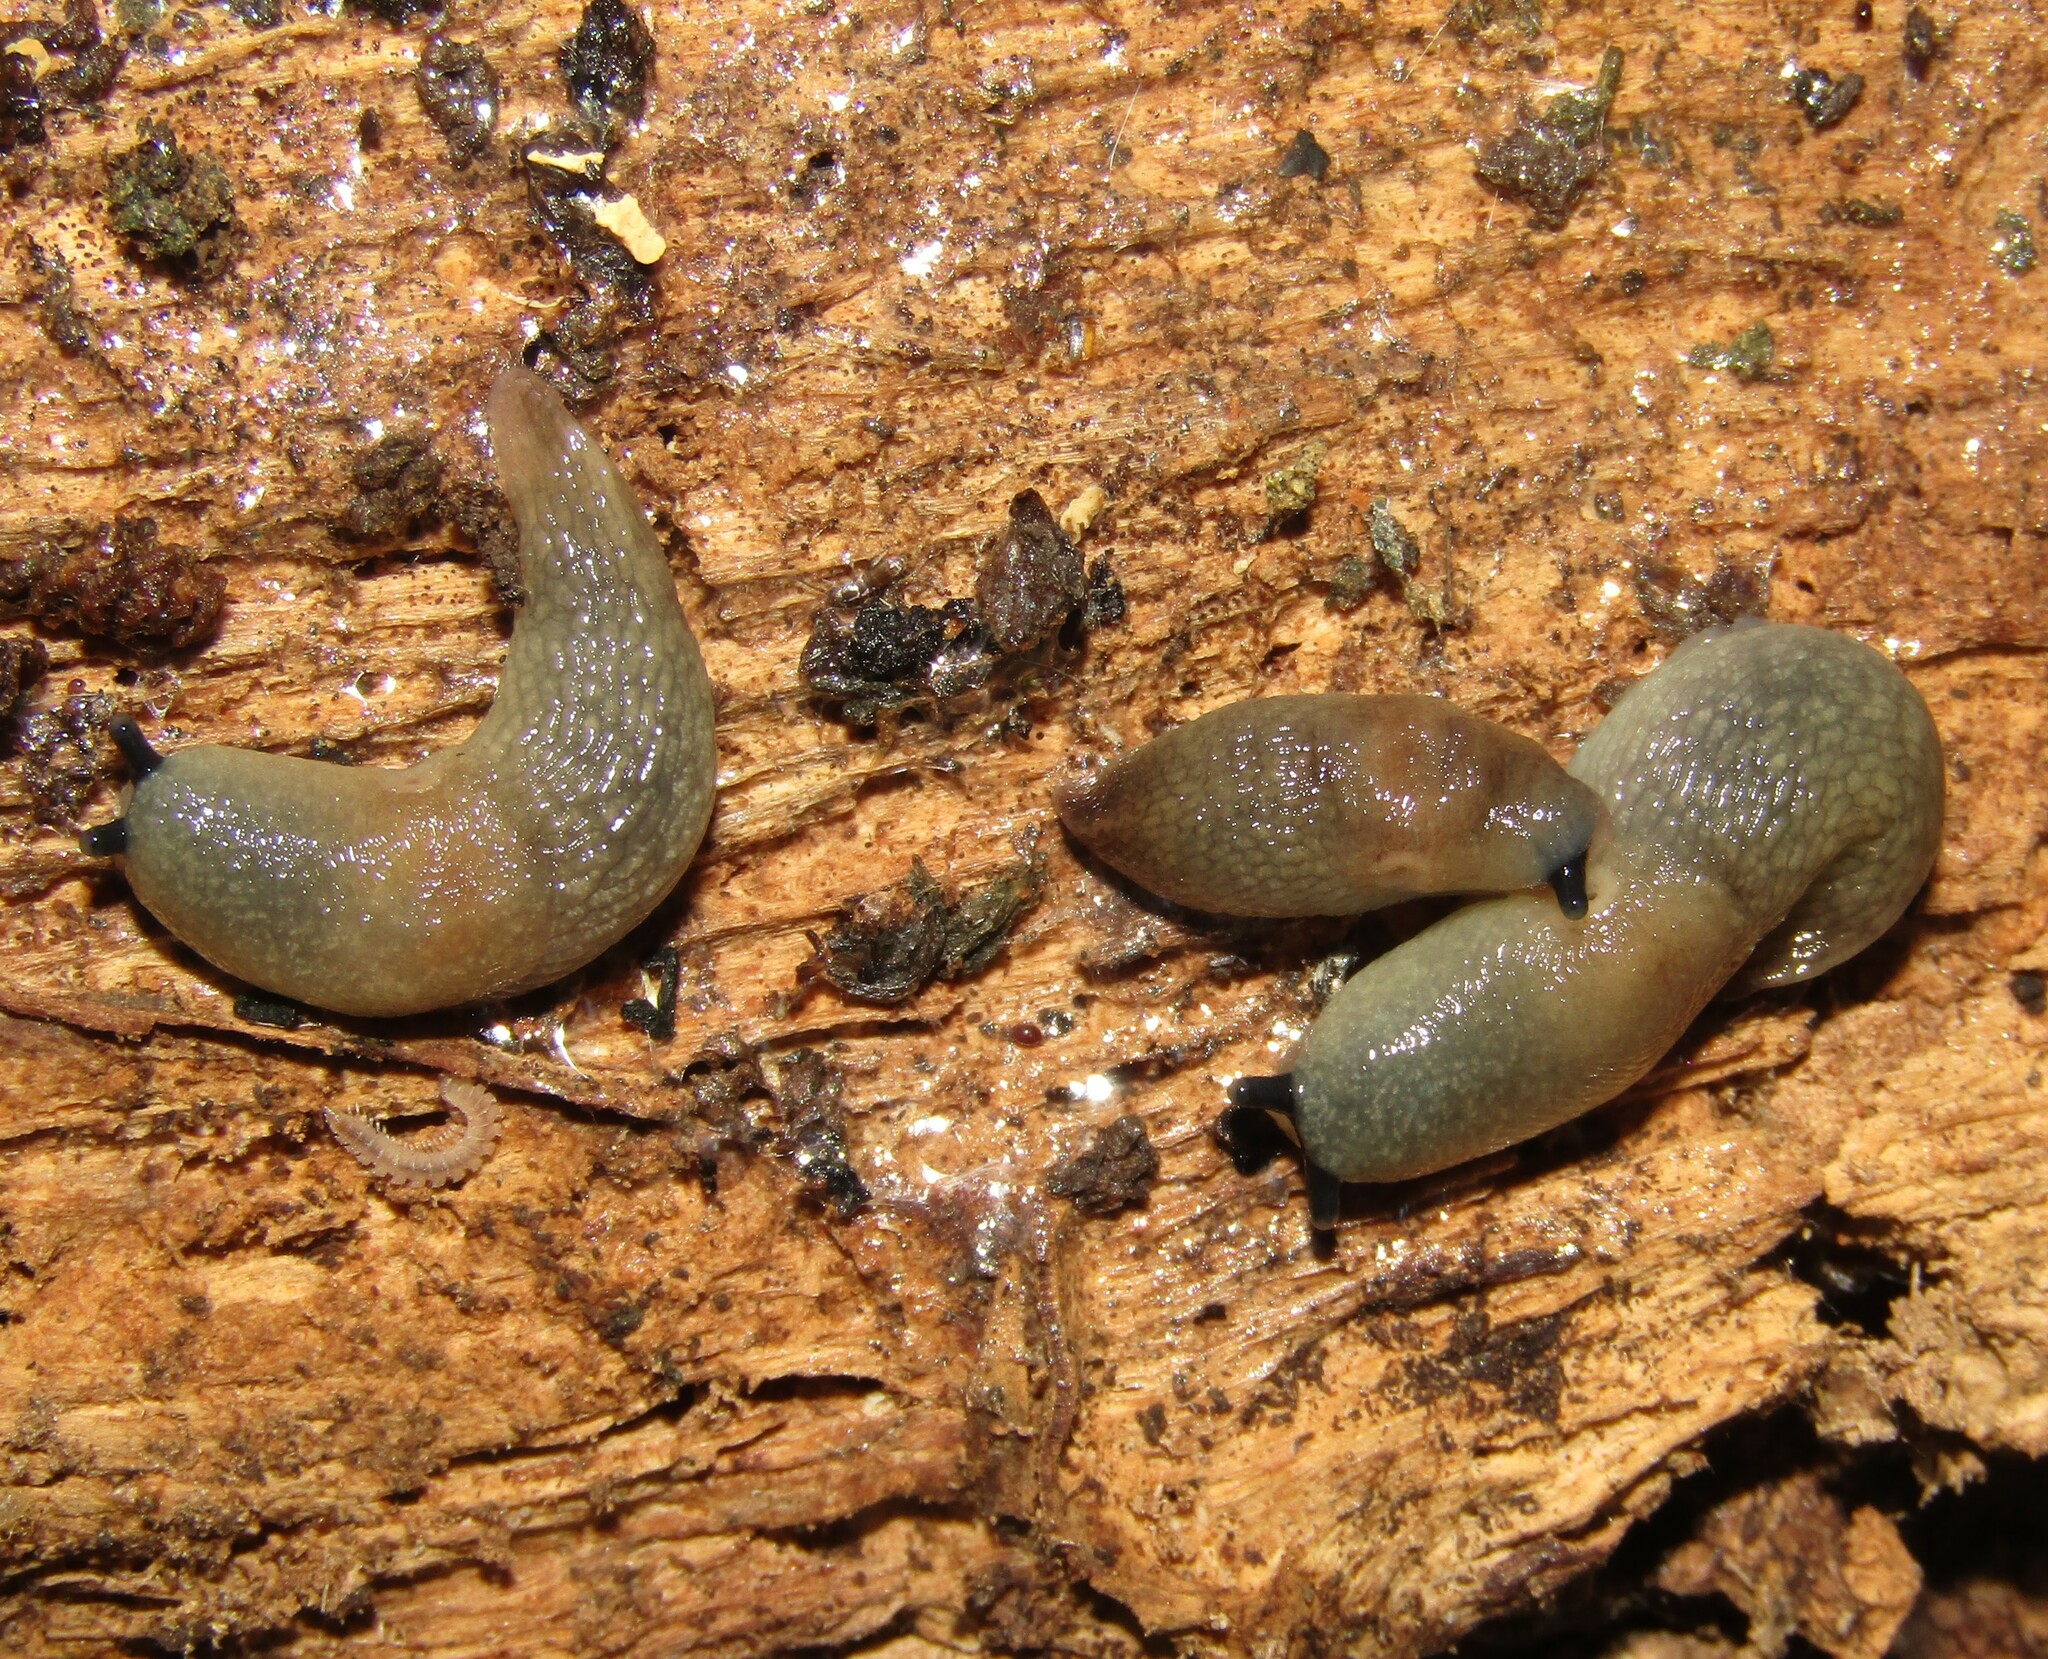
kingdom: Animalia
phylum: Mollusca
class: Gastropoda
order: Stylommatophora
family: Agriolimacidae
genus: Krynickillus
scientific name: Krynickillus melanocephalus
